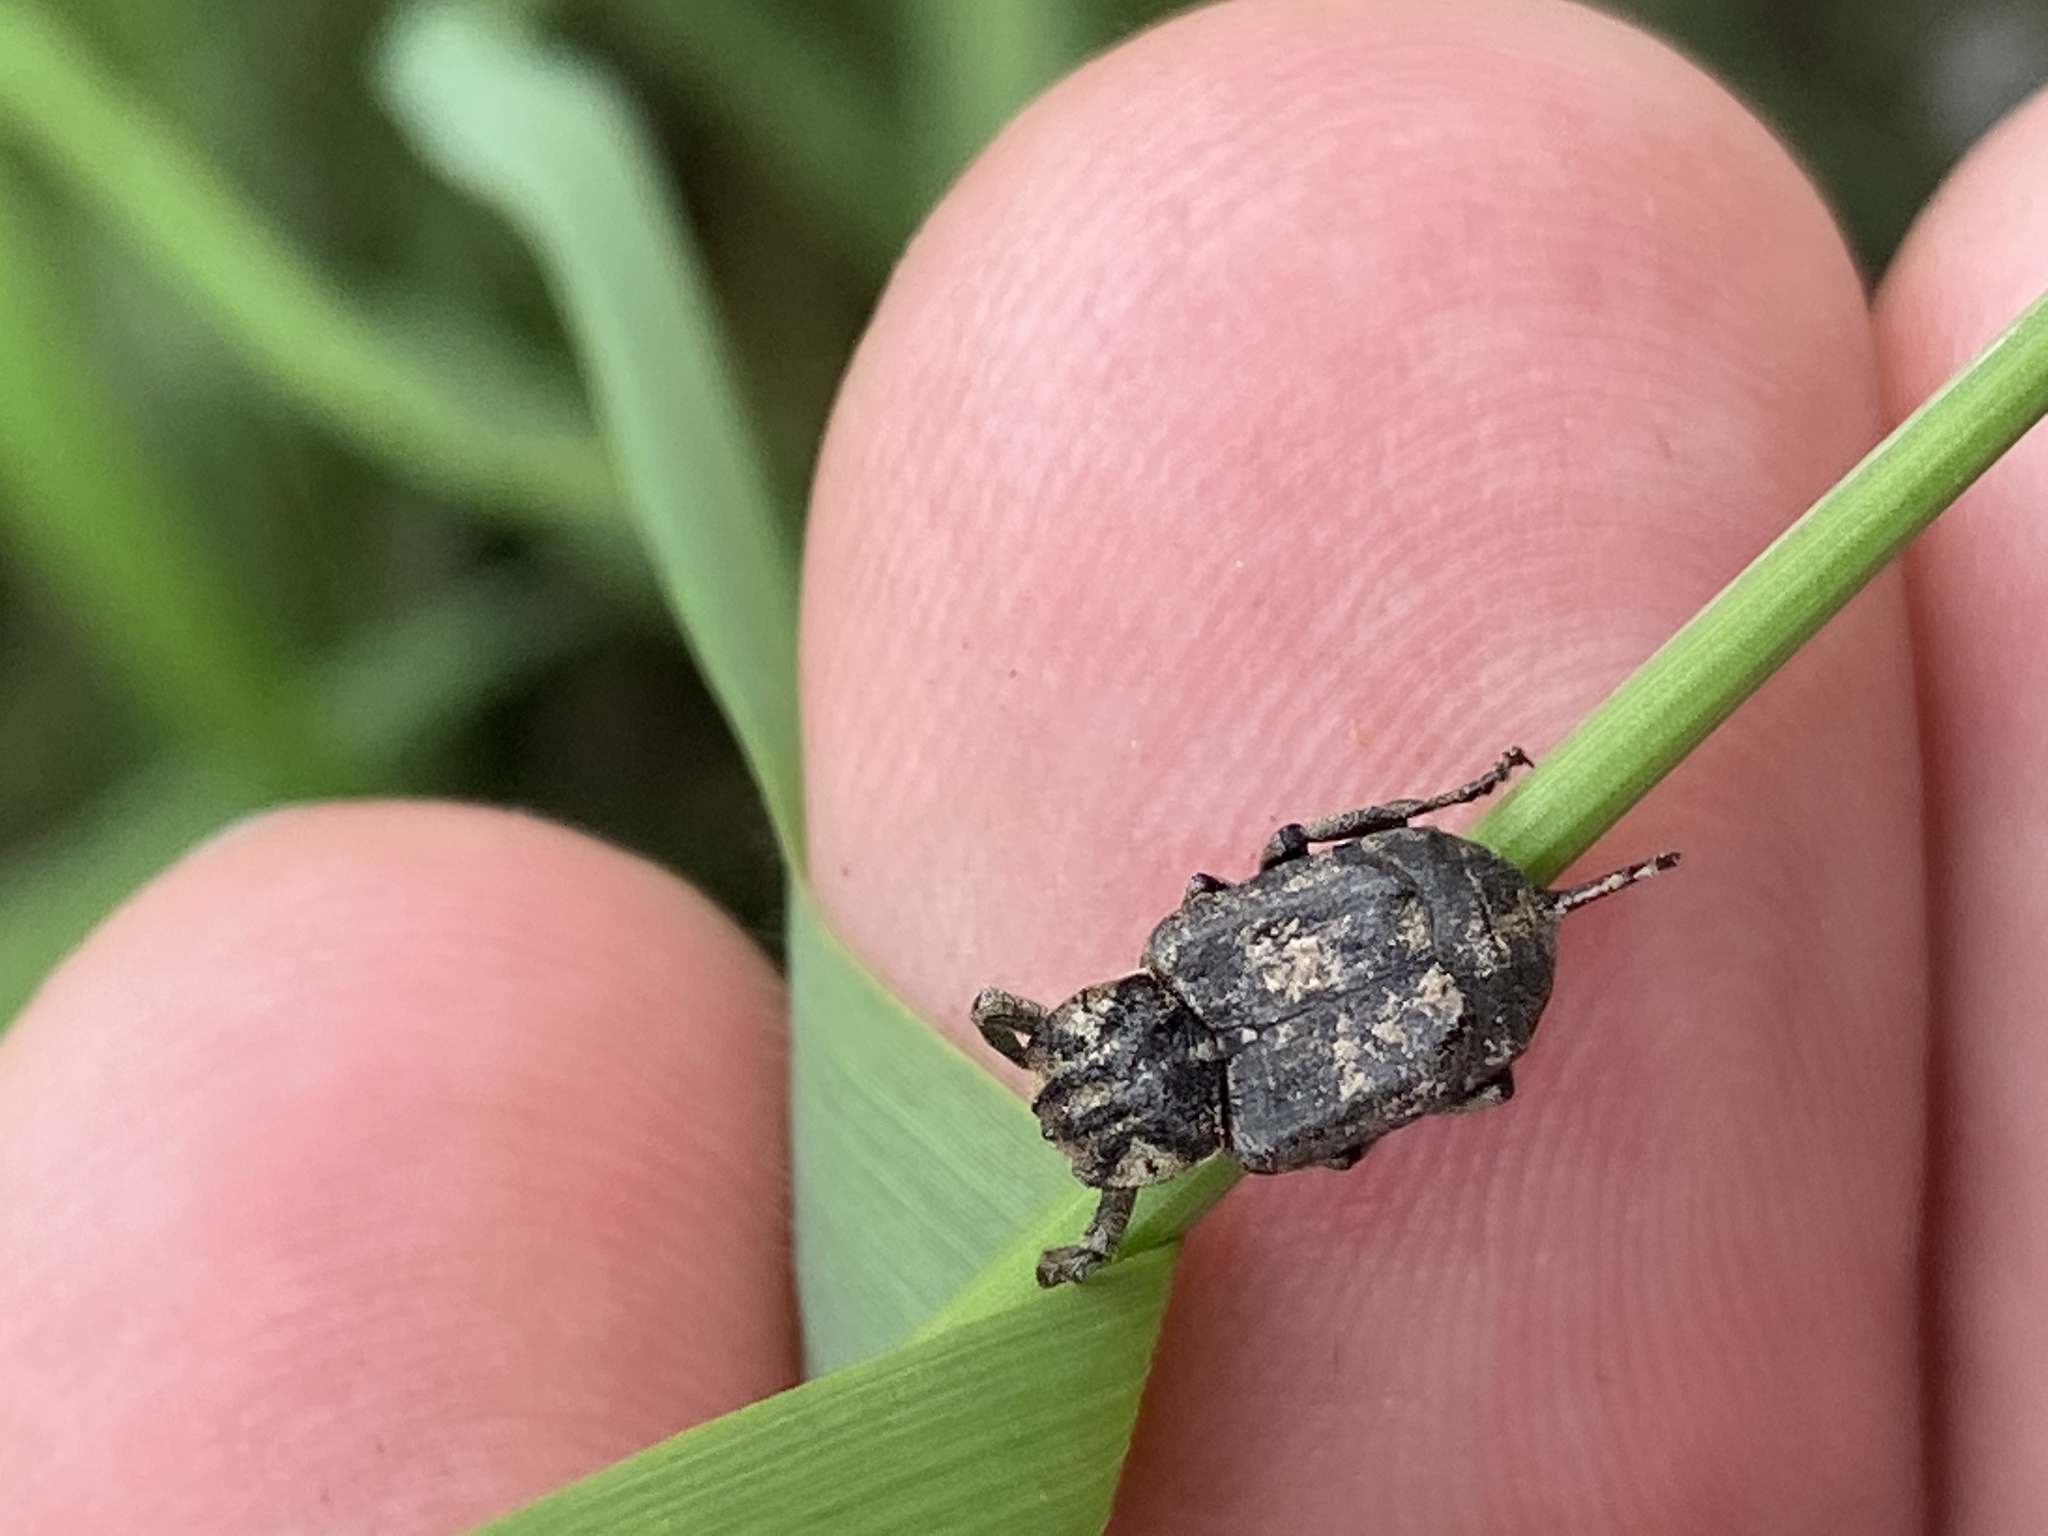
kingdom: Animalia
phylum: Arthropoda
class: Insecta
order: Coleoptera
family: Scarabaeidae
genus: Valgus
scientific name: Valgus hemipterus
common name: Bug flower chafer
